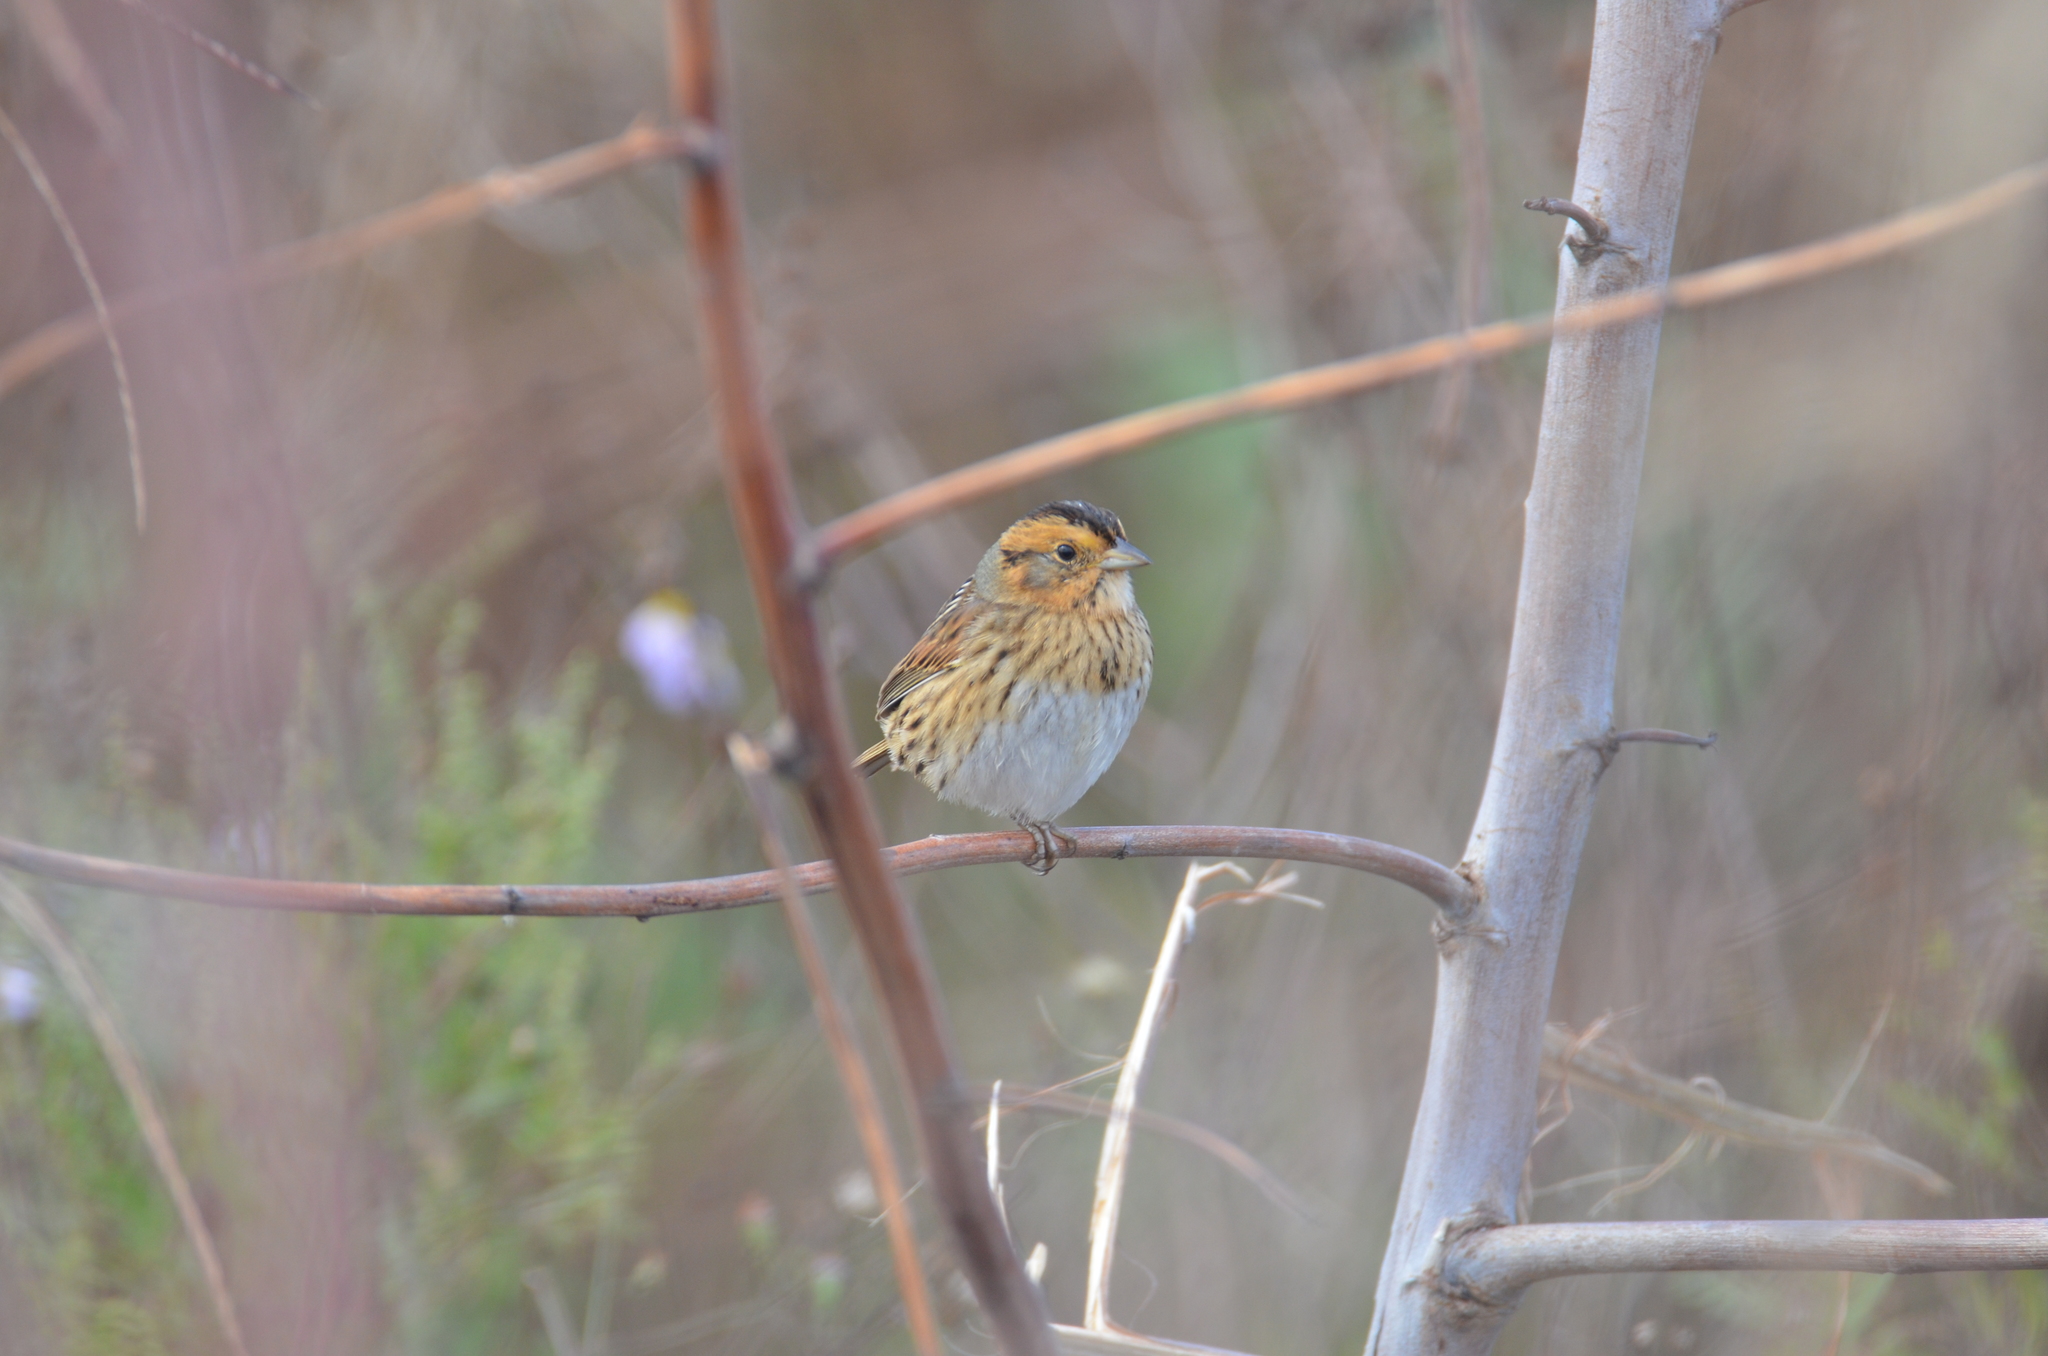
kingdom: Animalia
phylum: Chordata
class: Aves
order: Passeriformes
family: Passerellidae
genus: Ammospiza
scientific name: Ammospiza nelsoni
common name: Nelson's sparrow
